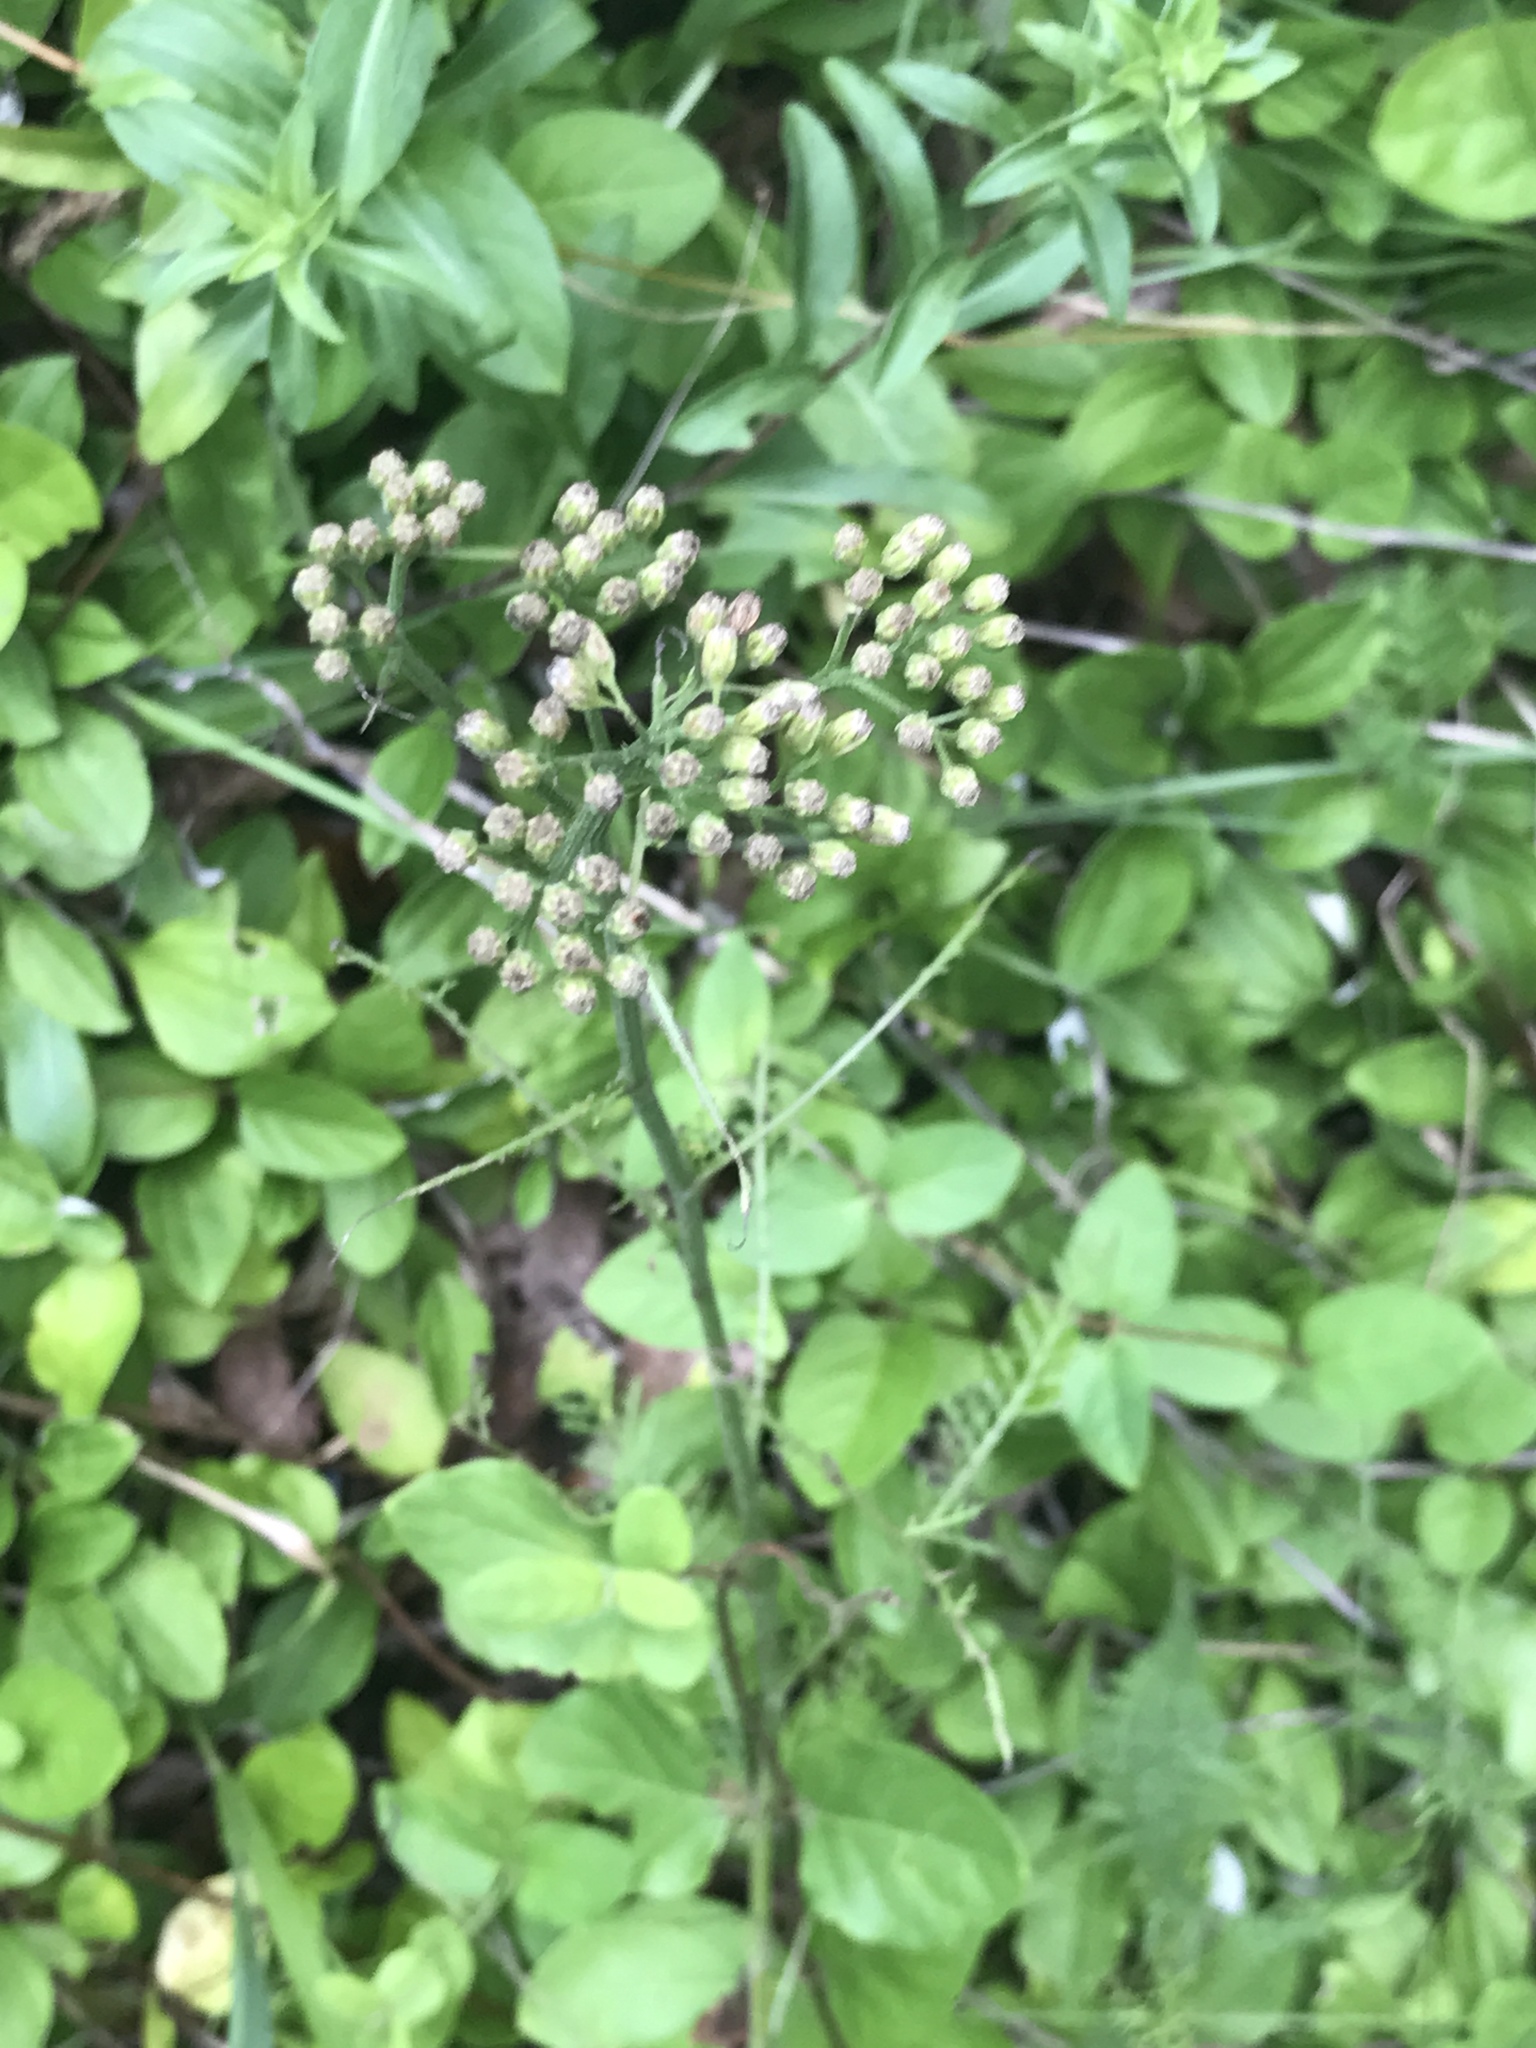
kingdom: Plantae
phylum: Tracheophyta
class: Magnoliopsida
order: Asterales
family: Asteraceae
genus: Achillea
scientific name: Achillea millefolium
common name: Yarrow
